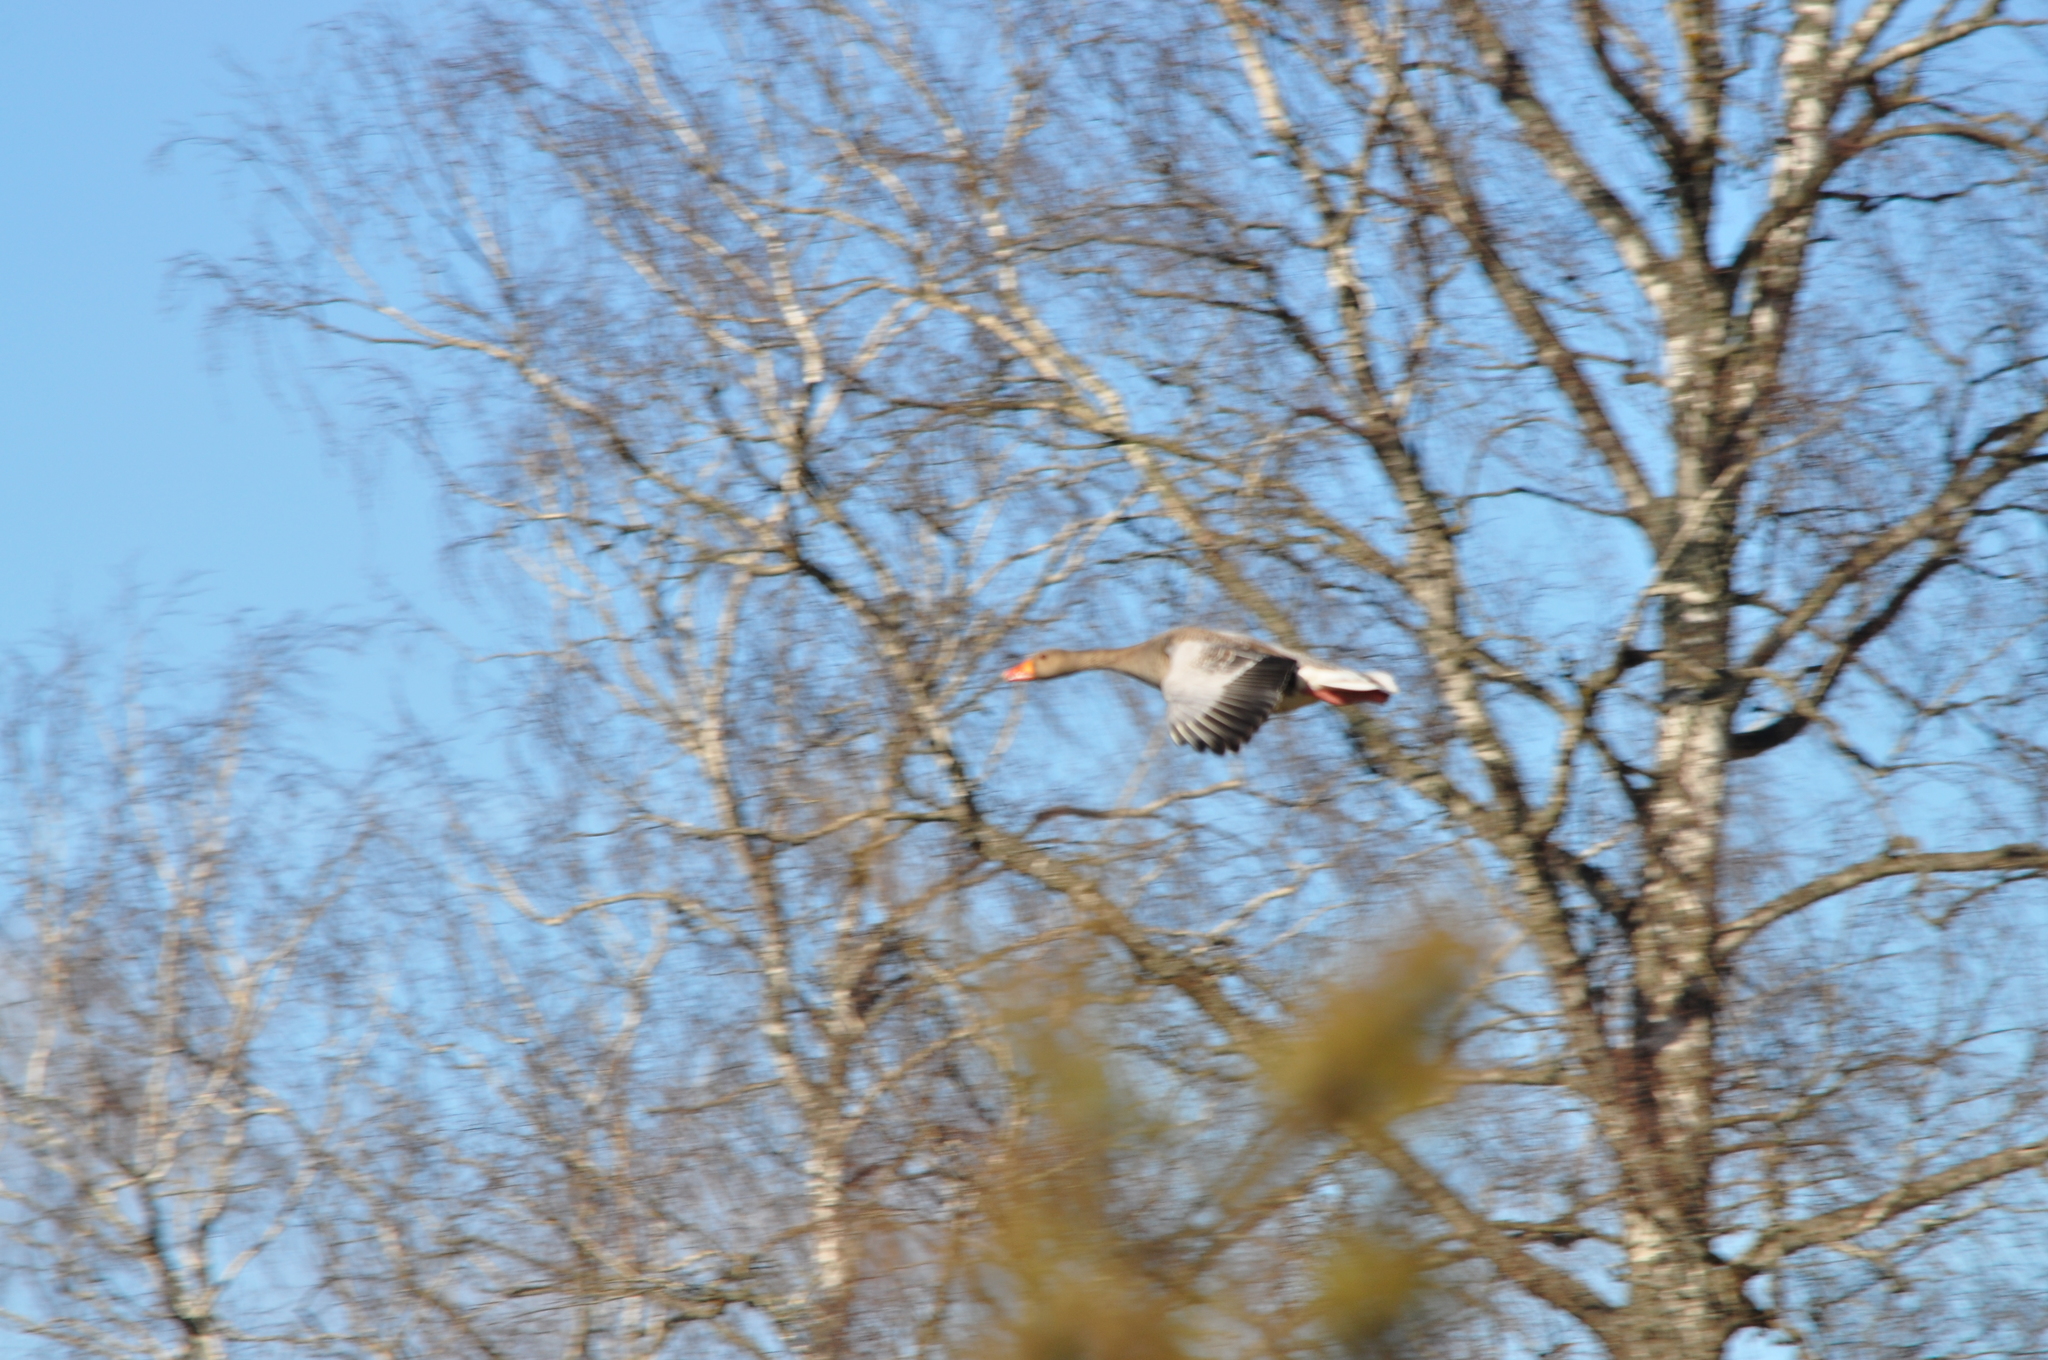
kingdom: Animalia
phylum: Chordata
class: Aves
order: Anseriformes
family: Anatidae
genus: Anser
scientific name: Anser anser
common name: Greylag goose
